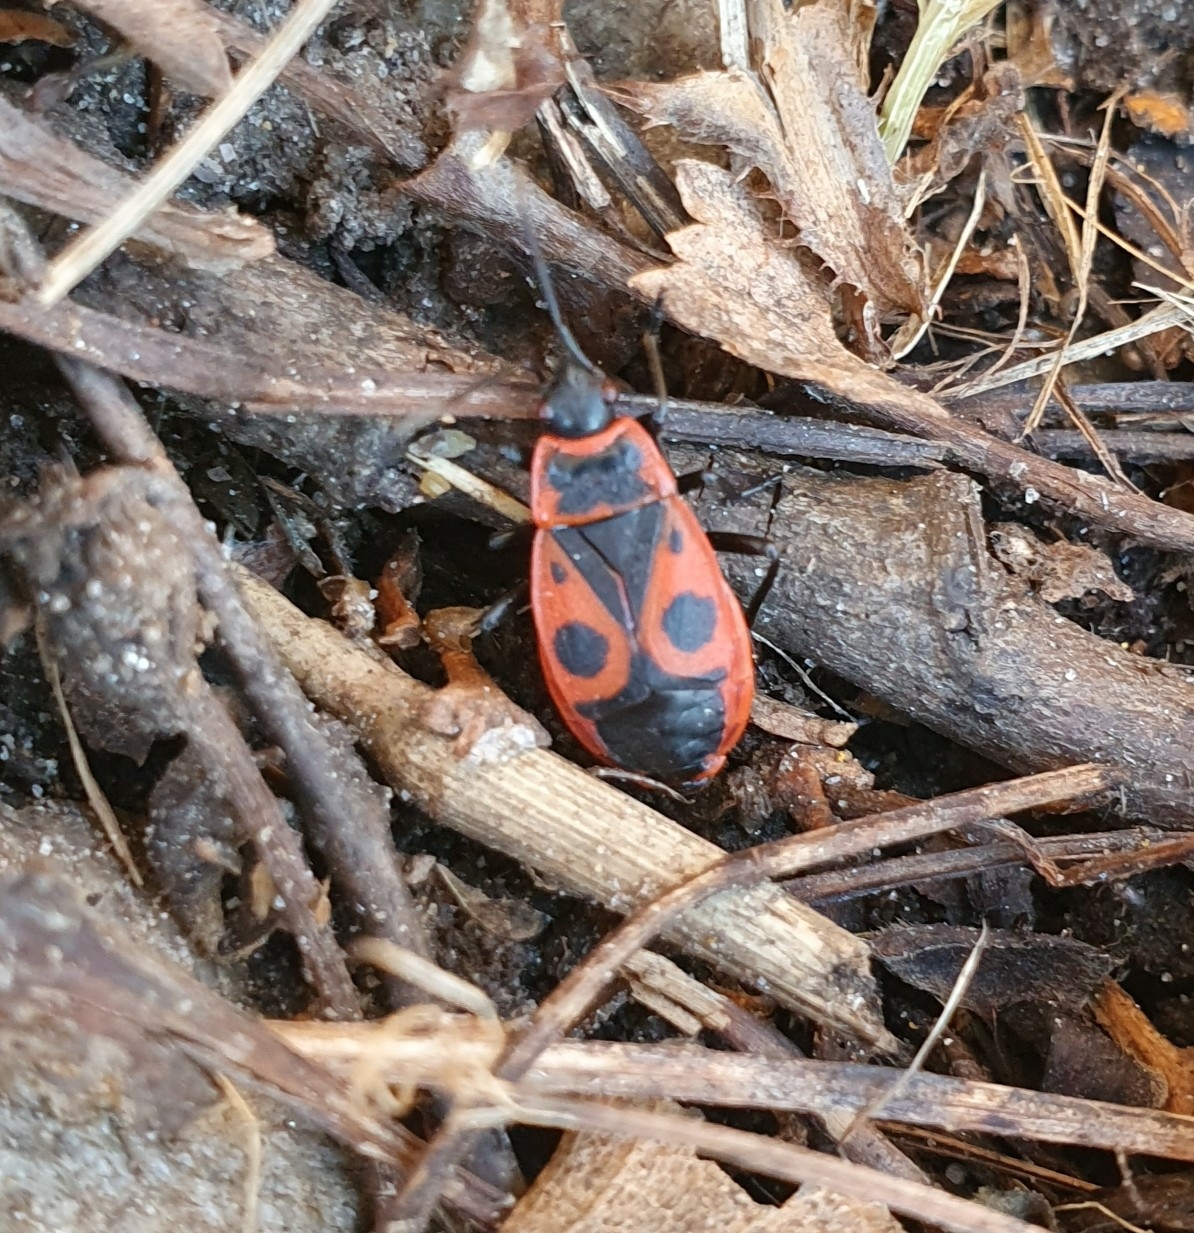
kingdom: Animalia
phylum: Arthropoda
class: Insecta
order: Hemiptera
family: Pyrrhocoridae
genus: Pyrrhocoris
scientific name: Pyrrhocoris apterus
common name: Firebug
